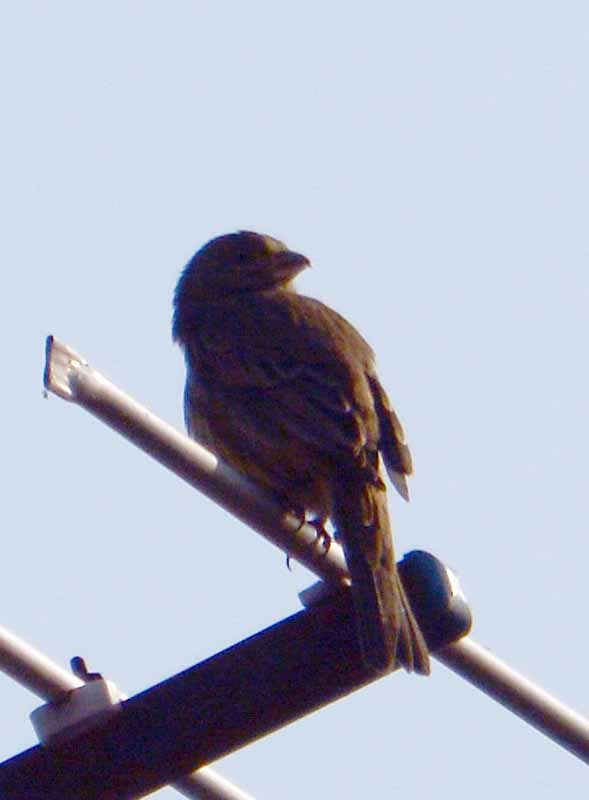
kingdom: Animalia
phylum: Chordata
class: Aves
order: Passeriformes
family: Fringillidae
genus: Haemorhous
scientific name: Haemorhous mexicanus
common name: House finch
